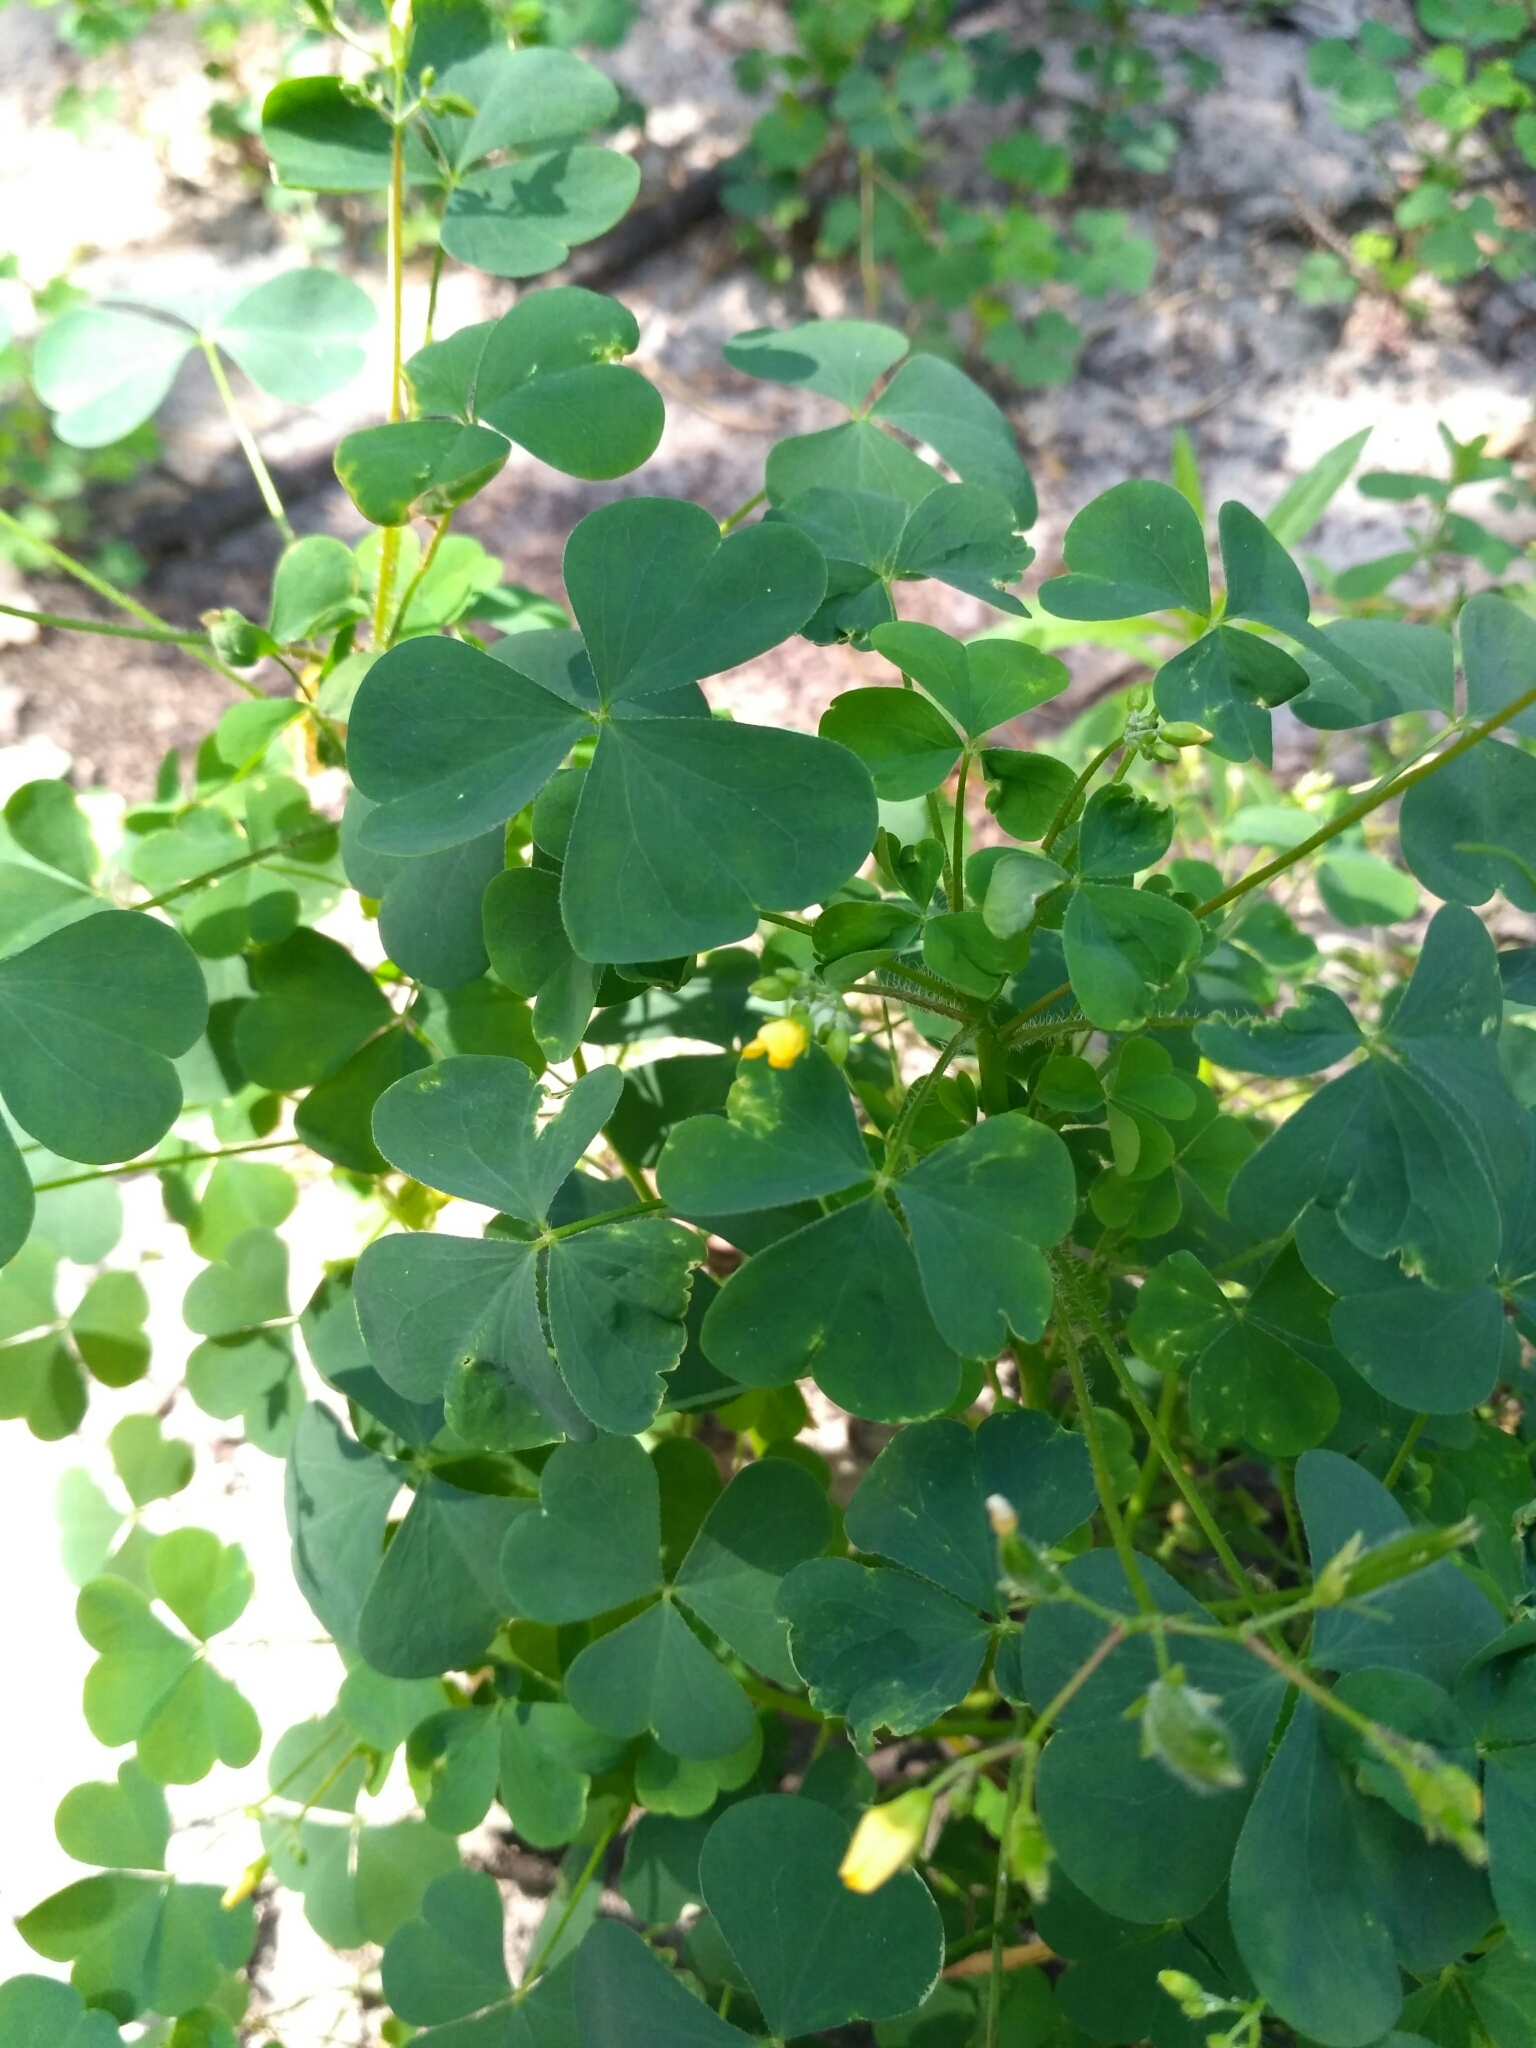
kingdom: Plantae
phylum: Tracheophyta
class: Magnoliopsida
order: Oxalidales
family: Oxalidaceae
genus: Oxalis
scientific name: Oxalis stricta
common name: Upright yellow-sorrel
